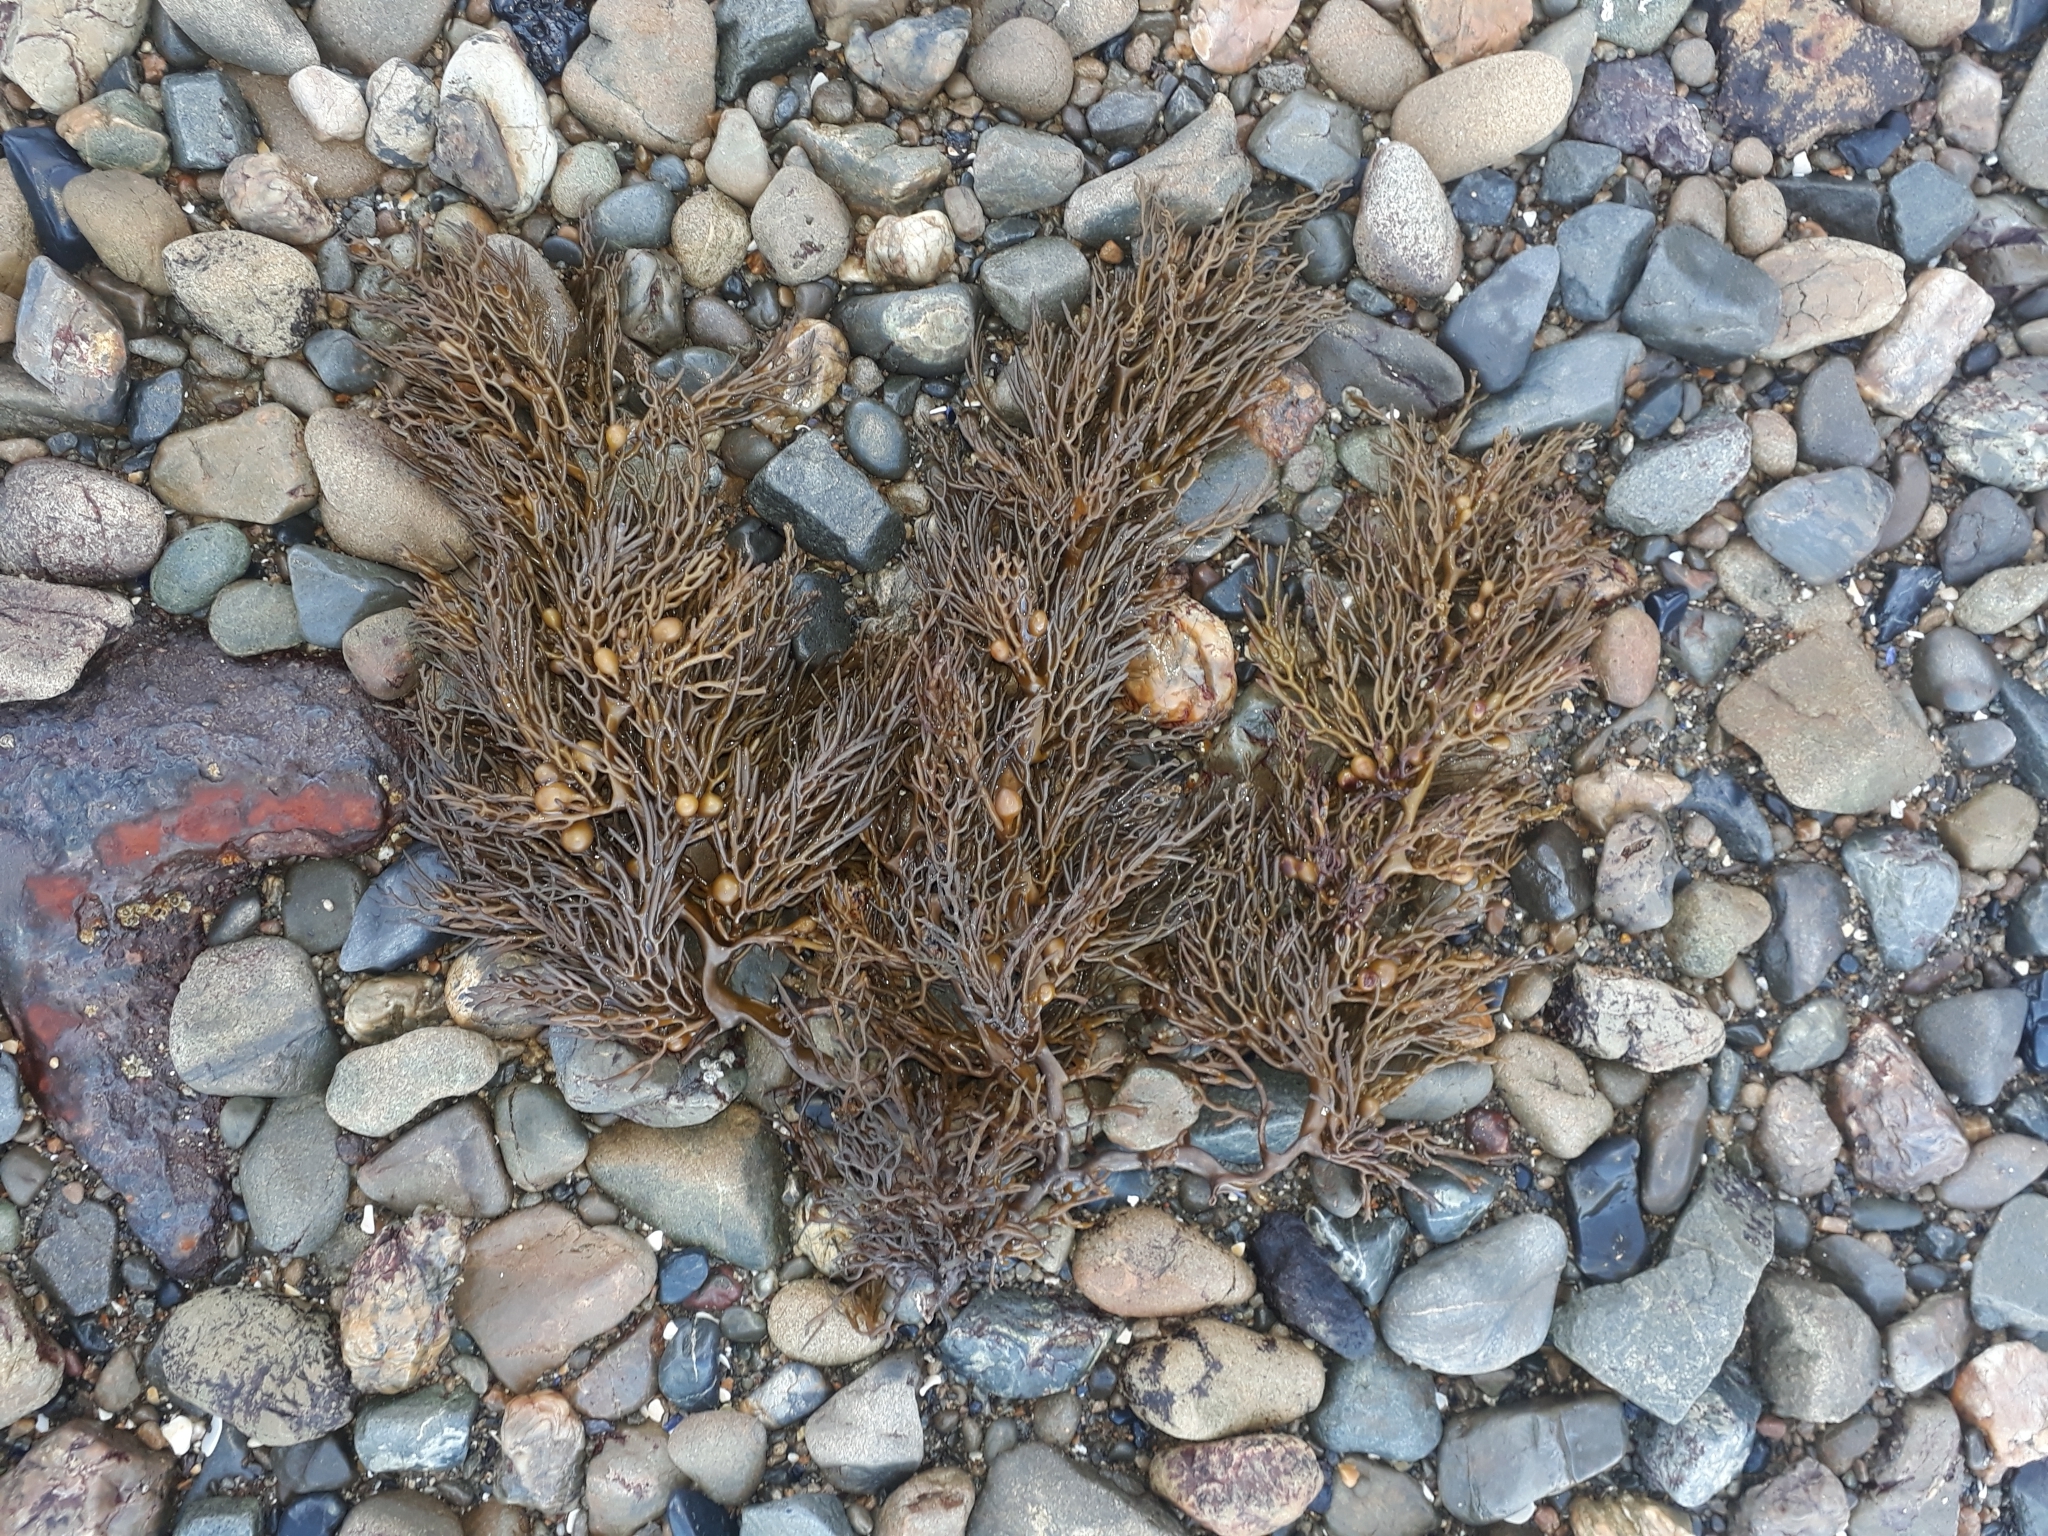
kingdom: Chromista
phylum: Ochrophyta
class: Phaeophyceae
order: Fucales
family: Sargassaceae
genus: Cystophora
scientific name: Cystophora retroflexa
